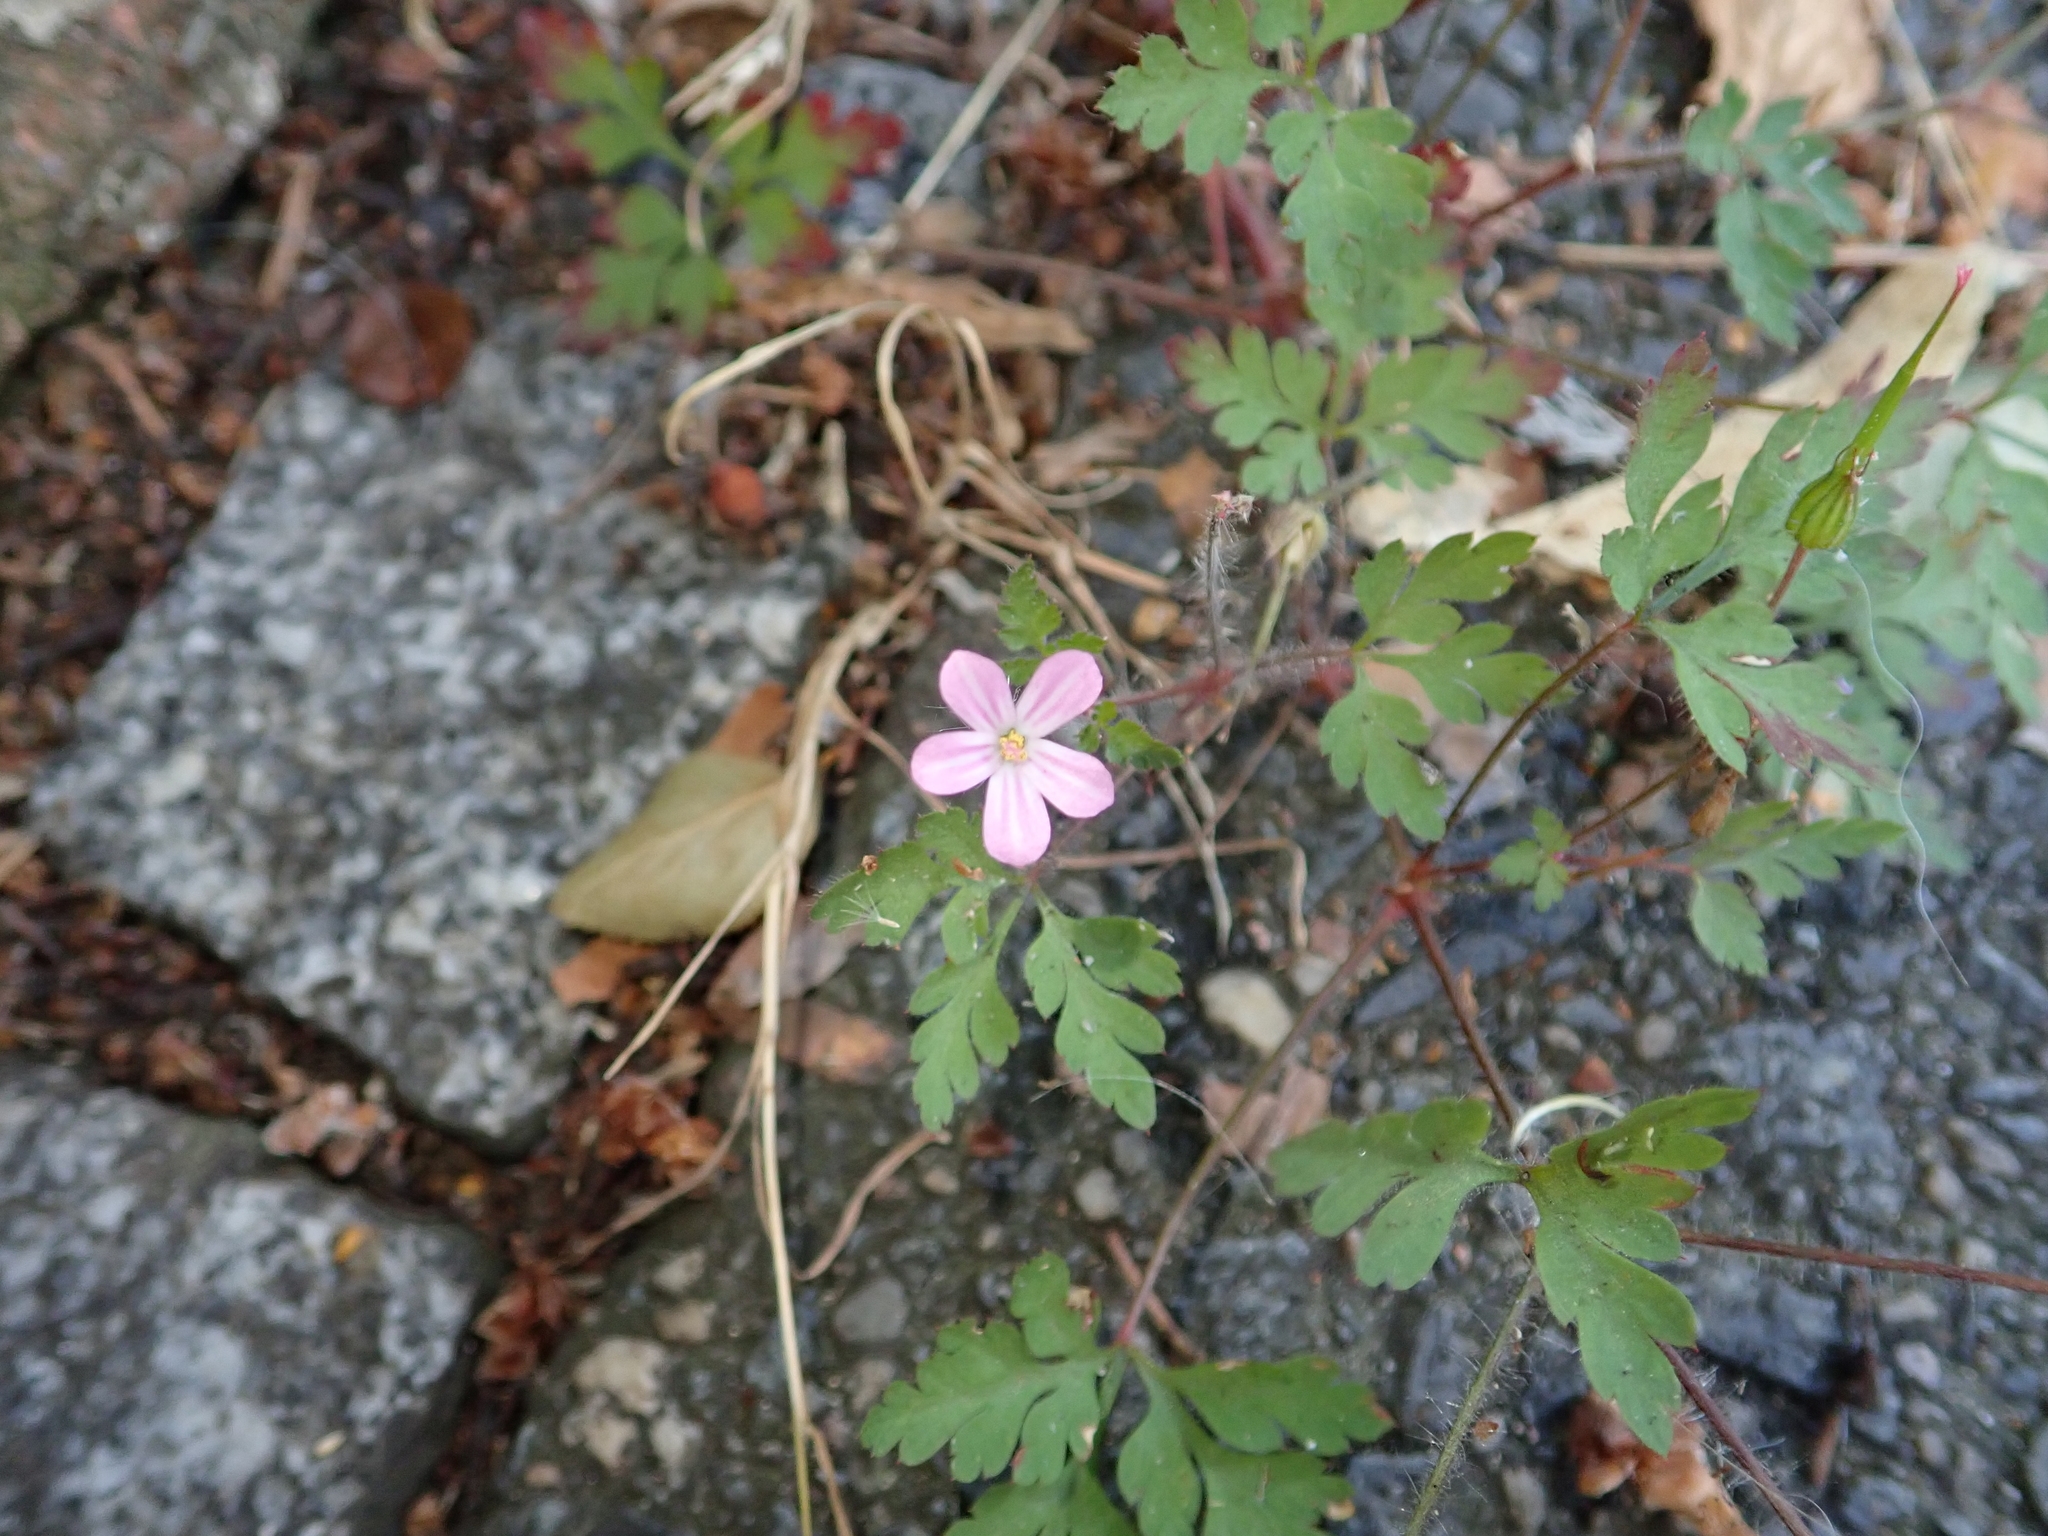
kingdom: Plantae
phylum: Tracheophyta
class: Magnoliopsida
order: Geraniales
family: Geraniaceae
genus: Geranium
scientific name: Geranium robertianum
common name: Herb-robert
